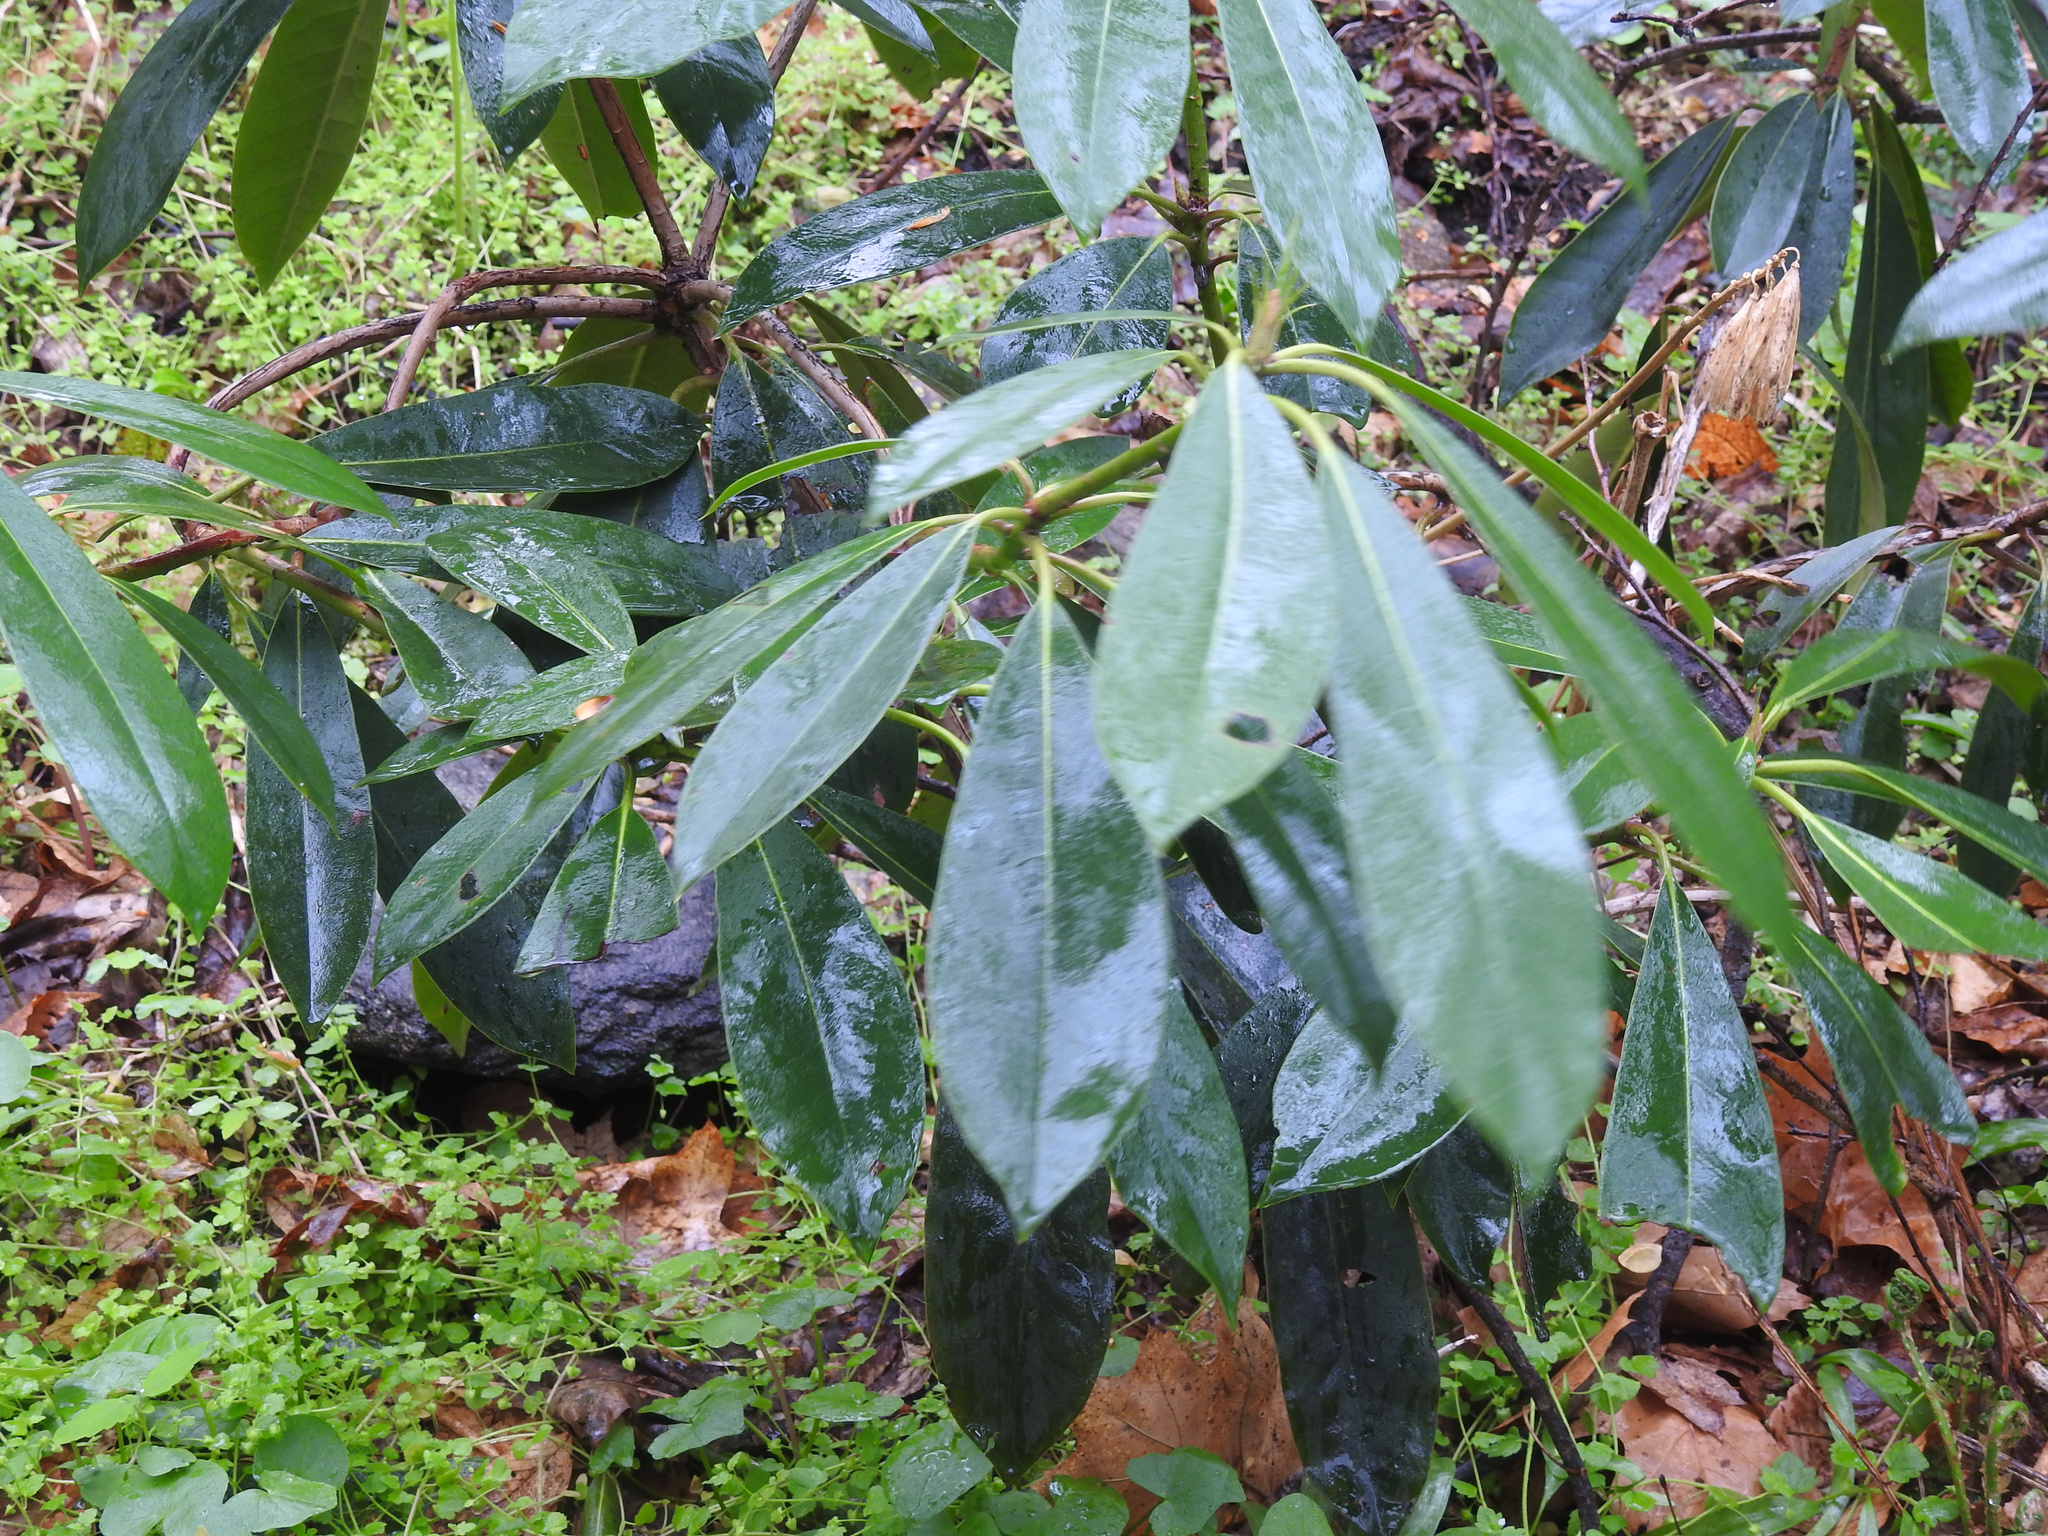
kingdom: Plantae
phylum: Tracheophyta
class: Magnoliopsida
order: Ericales
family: Ericaceae
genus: Rhododendron
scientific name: Rhododendron maximum
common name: Great rhododendron
